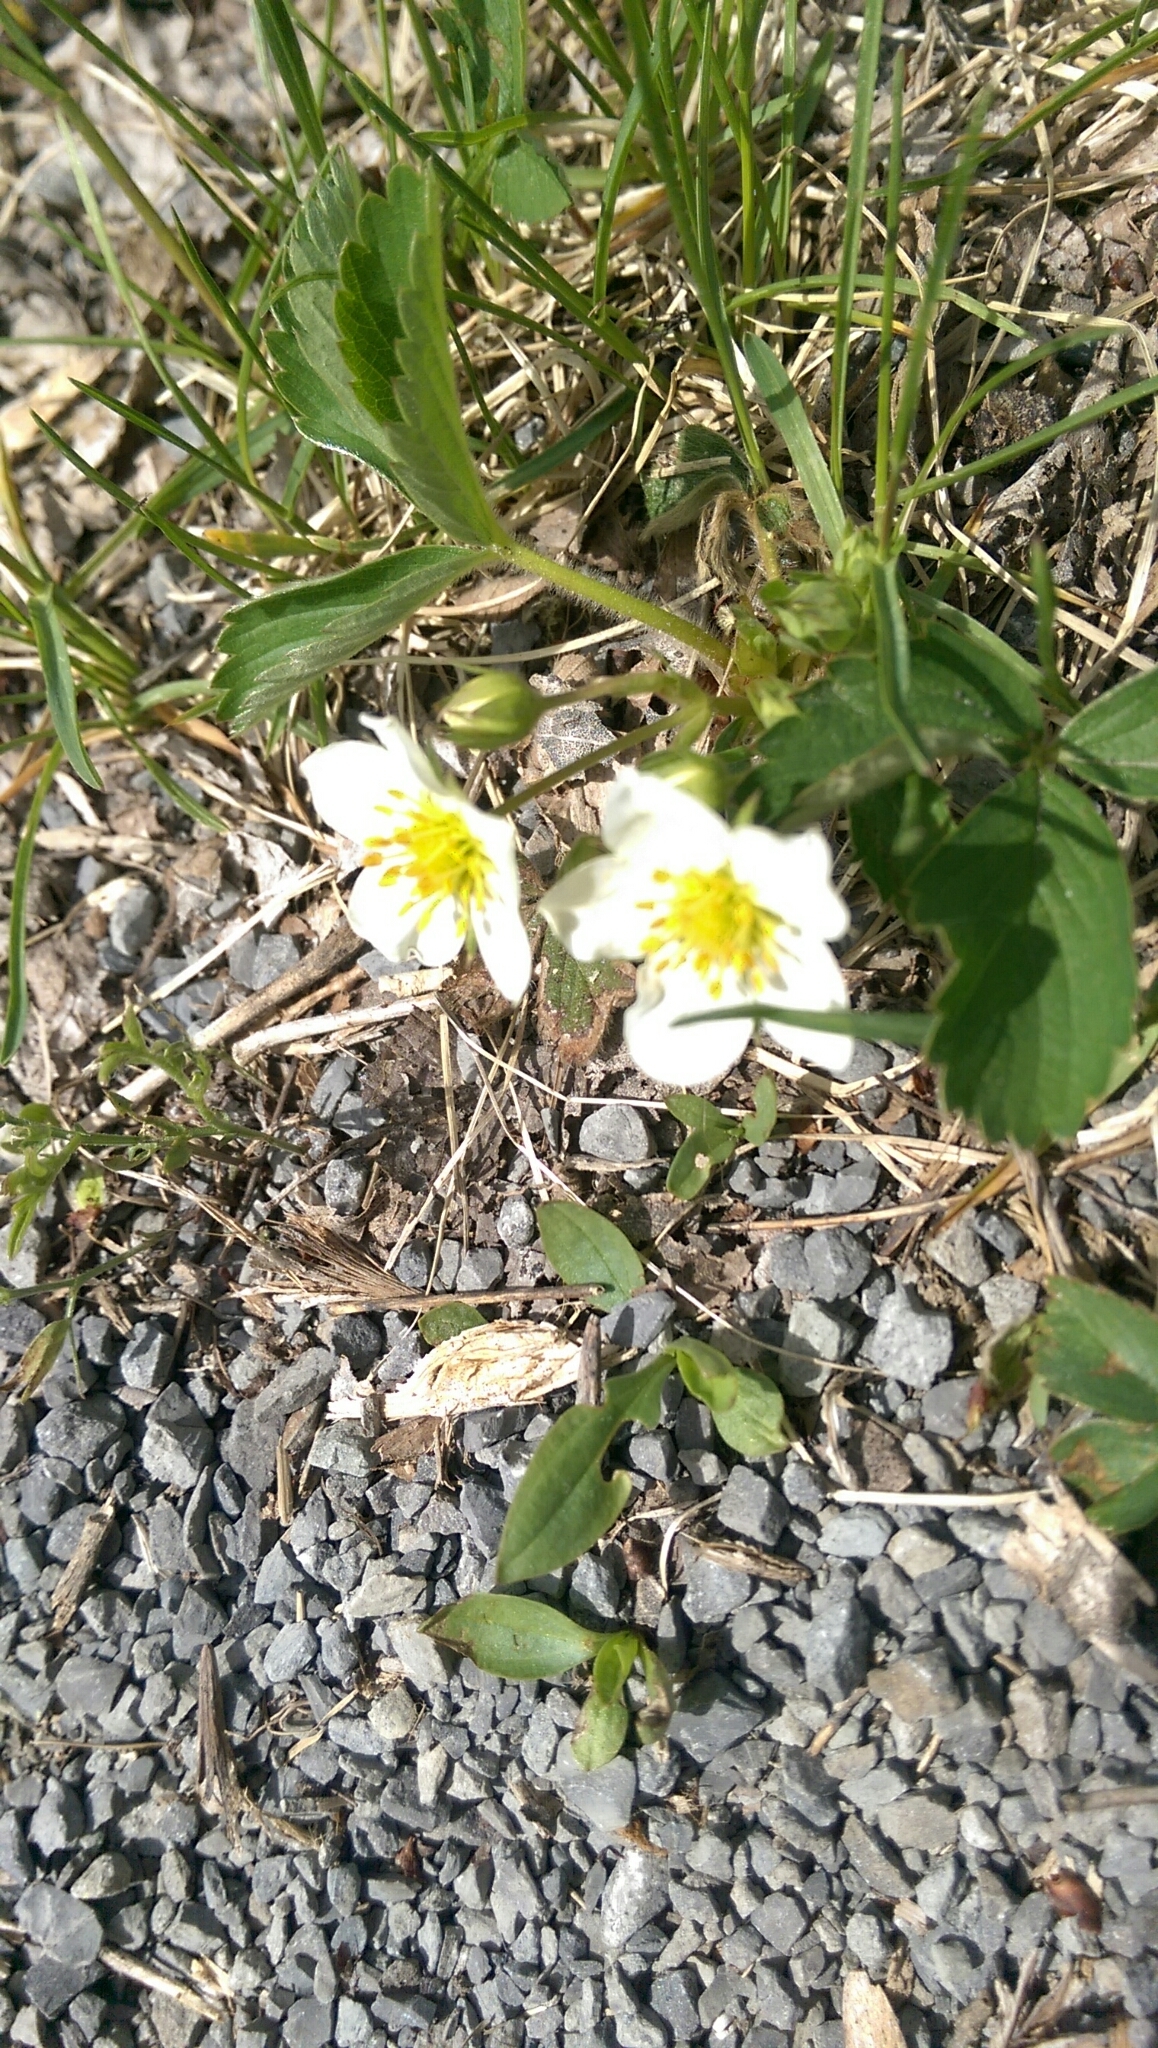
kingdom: Plantae
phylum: Tracheophyta
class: Magnoliopsida
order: Rosales
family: Rosaceae
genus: Fragaria
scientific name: Fragaria vesca
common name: Wild strawberry
